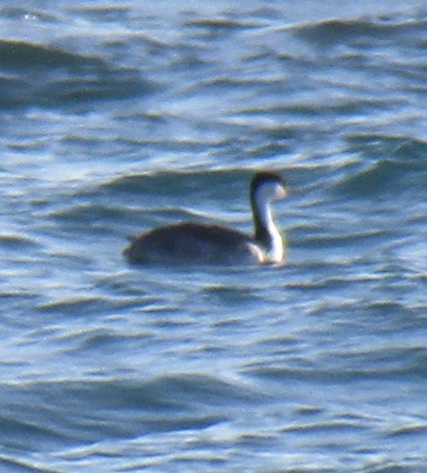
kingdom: Animalia
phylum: Chordata
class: Aves
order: Podicipediformes
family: Podicipedidae
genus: Aechmophorus
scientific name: Aechmophorus occidentalis
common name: Western grebe
